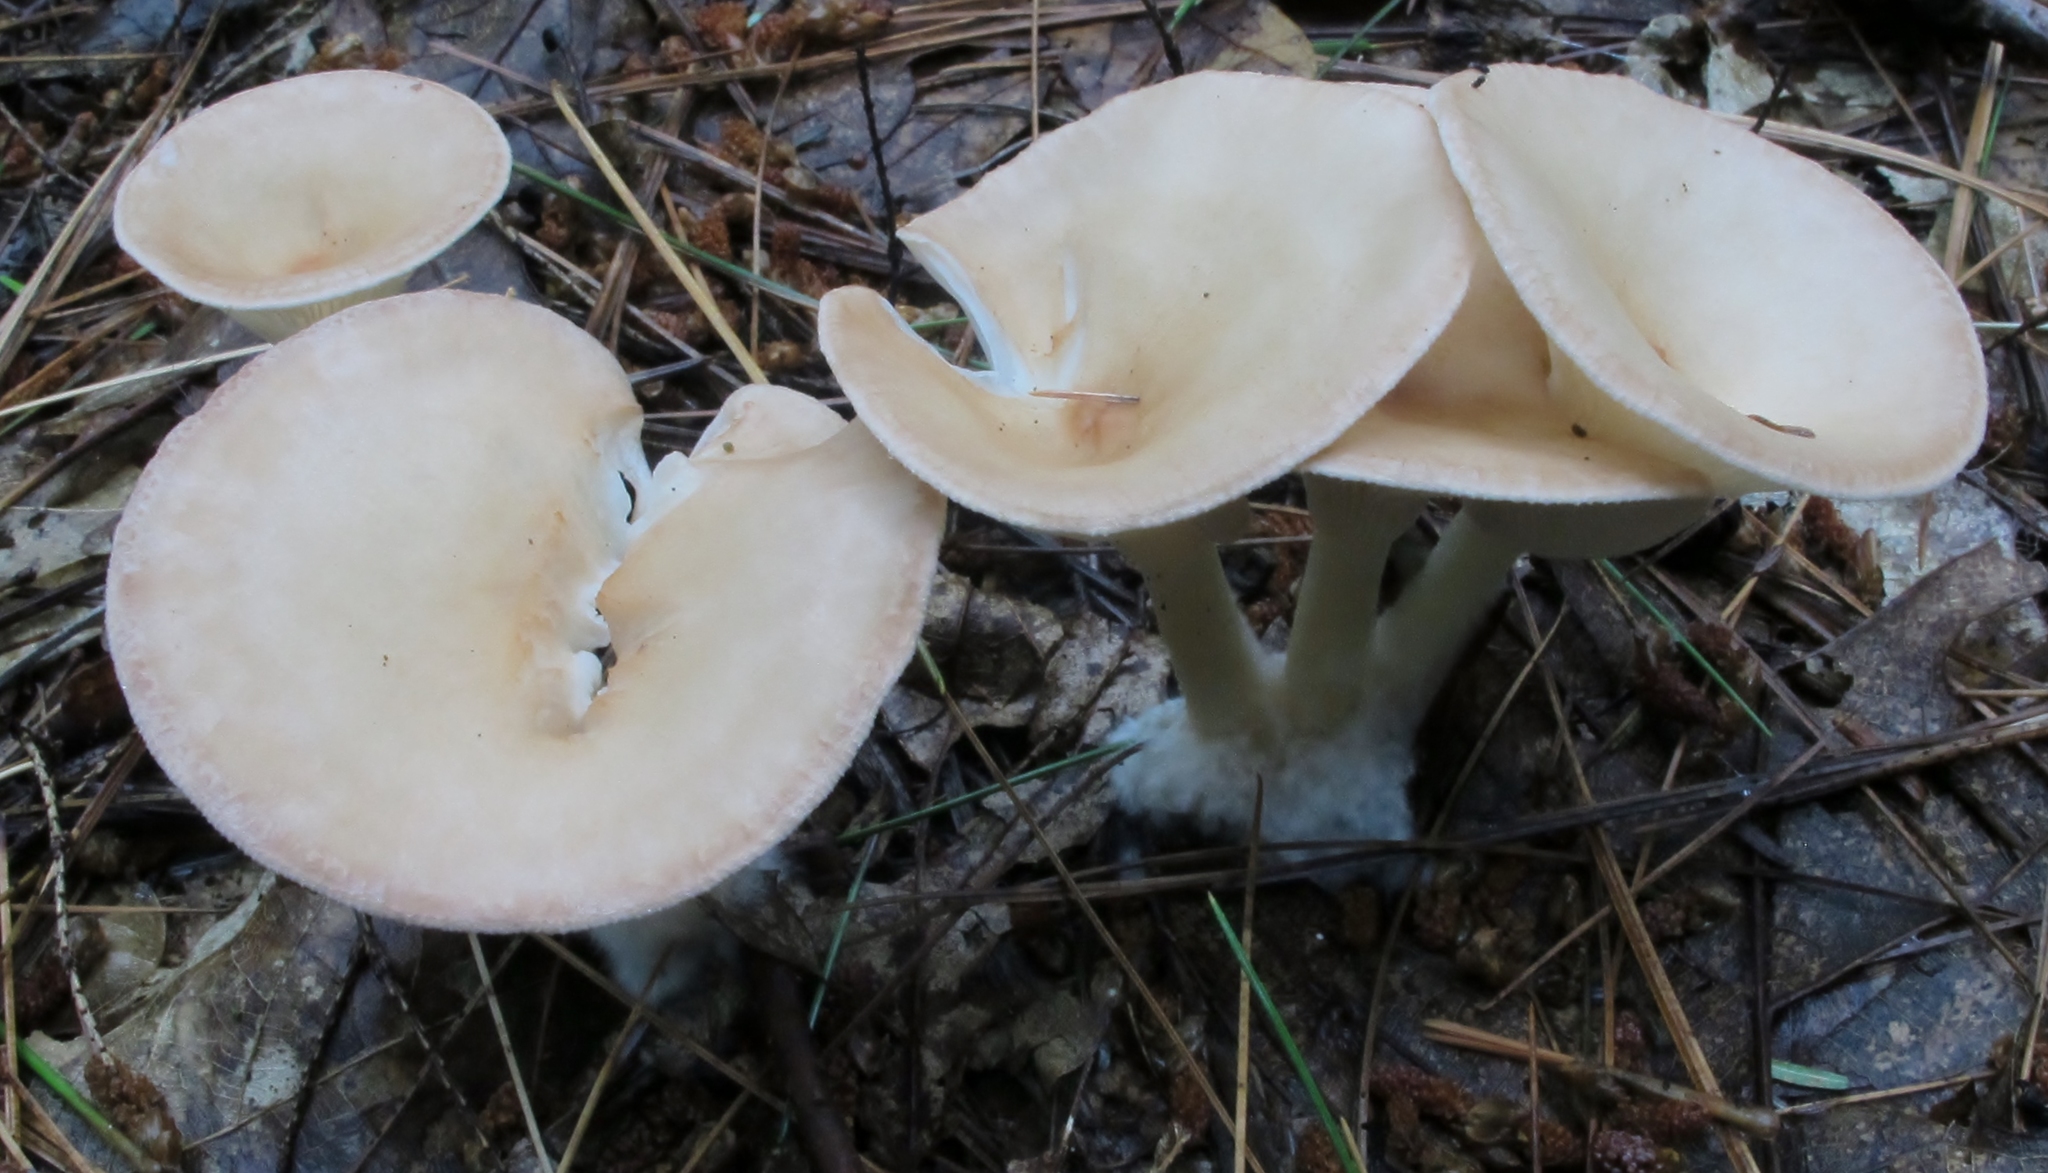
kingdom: Fungi
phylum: Basidiomycota
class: Agaricomycetes
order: Agaricales
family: Tricholomataceae
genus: Infundibulicybe
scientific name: Infundibulicybe gibba
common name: Common funnel
